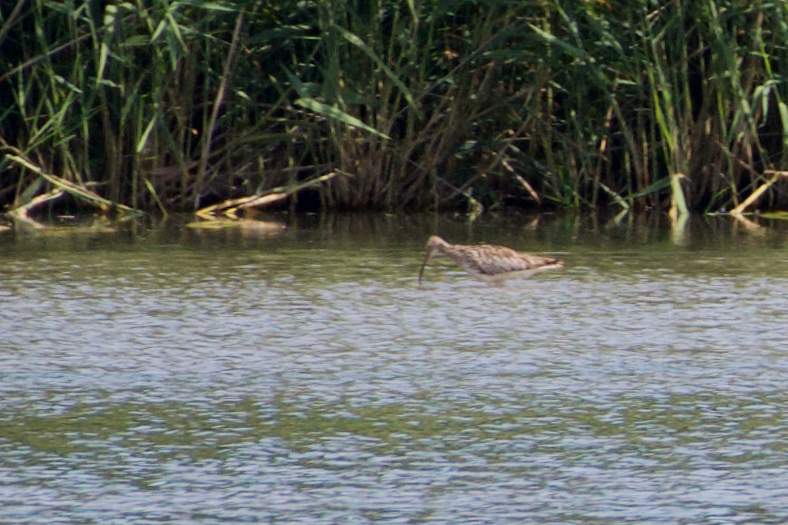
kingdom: Animalia
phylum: Chordata
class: Aves
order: Charadriiformes
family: Scolopacidae
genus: Numenius
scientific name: Numenius arquata
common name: Eurasian curlew
